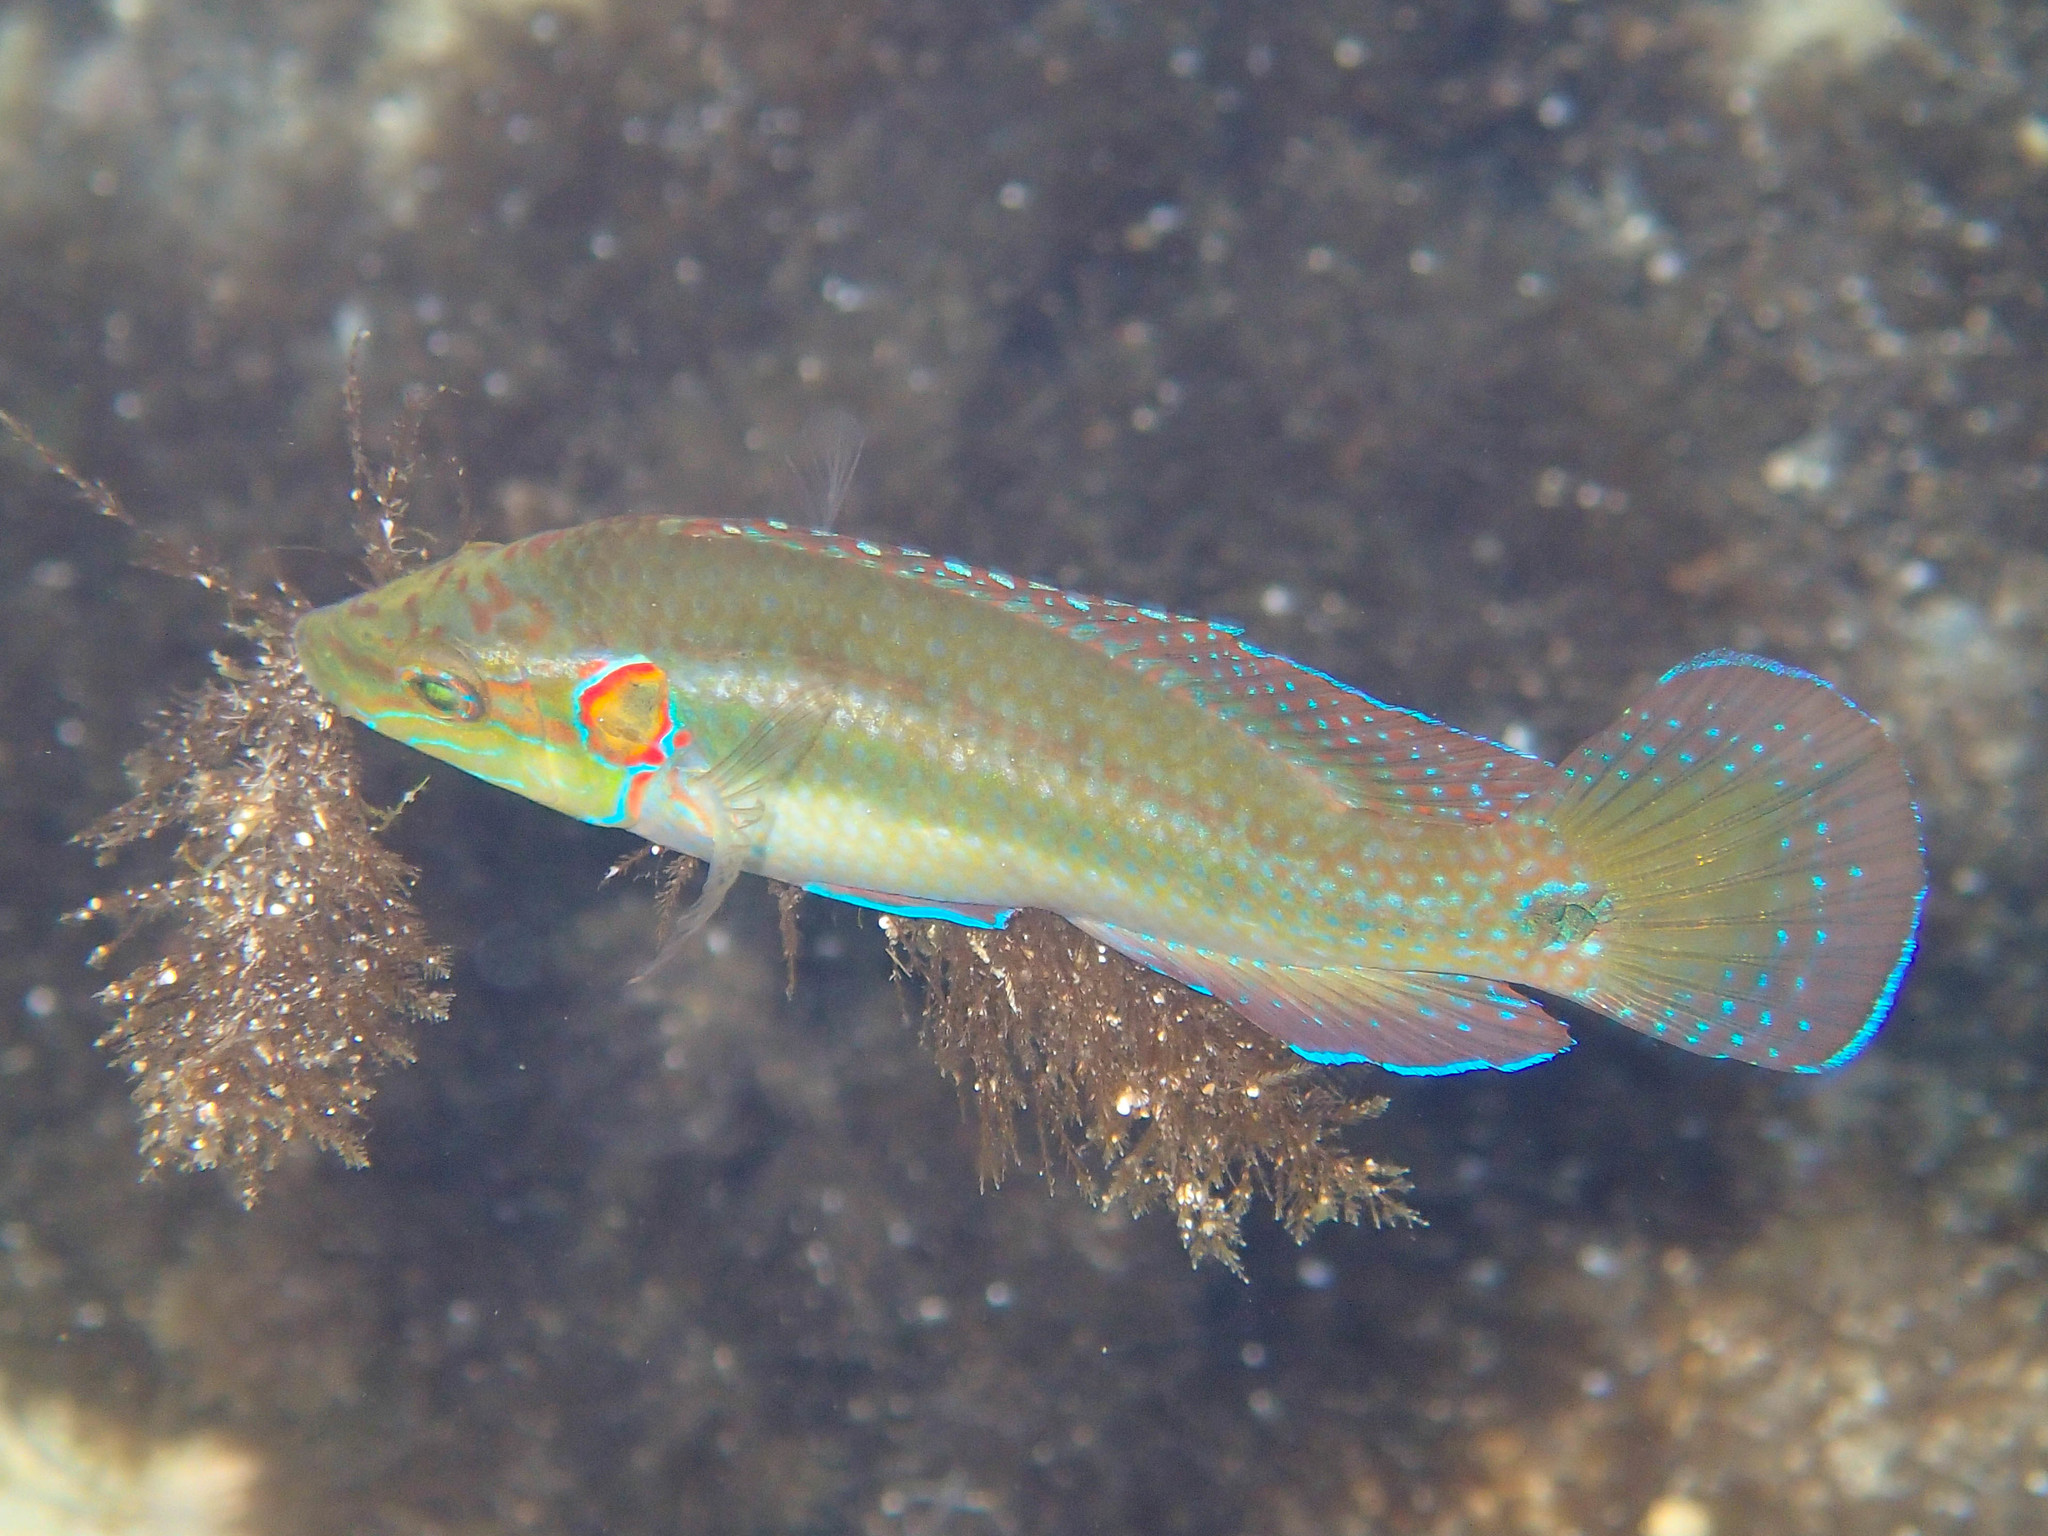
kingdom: Animalia
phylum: Chordata
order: Perciformes
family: Labridae
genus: Symphodus
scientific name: Symphodus ocellatus
